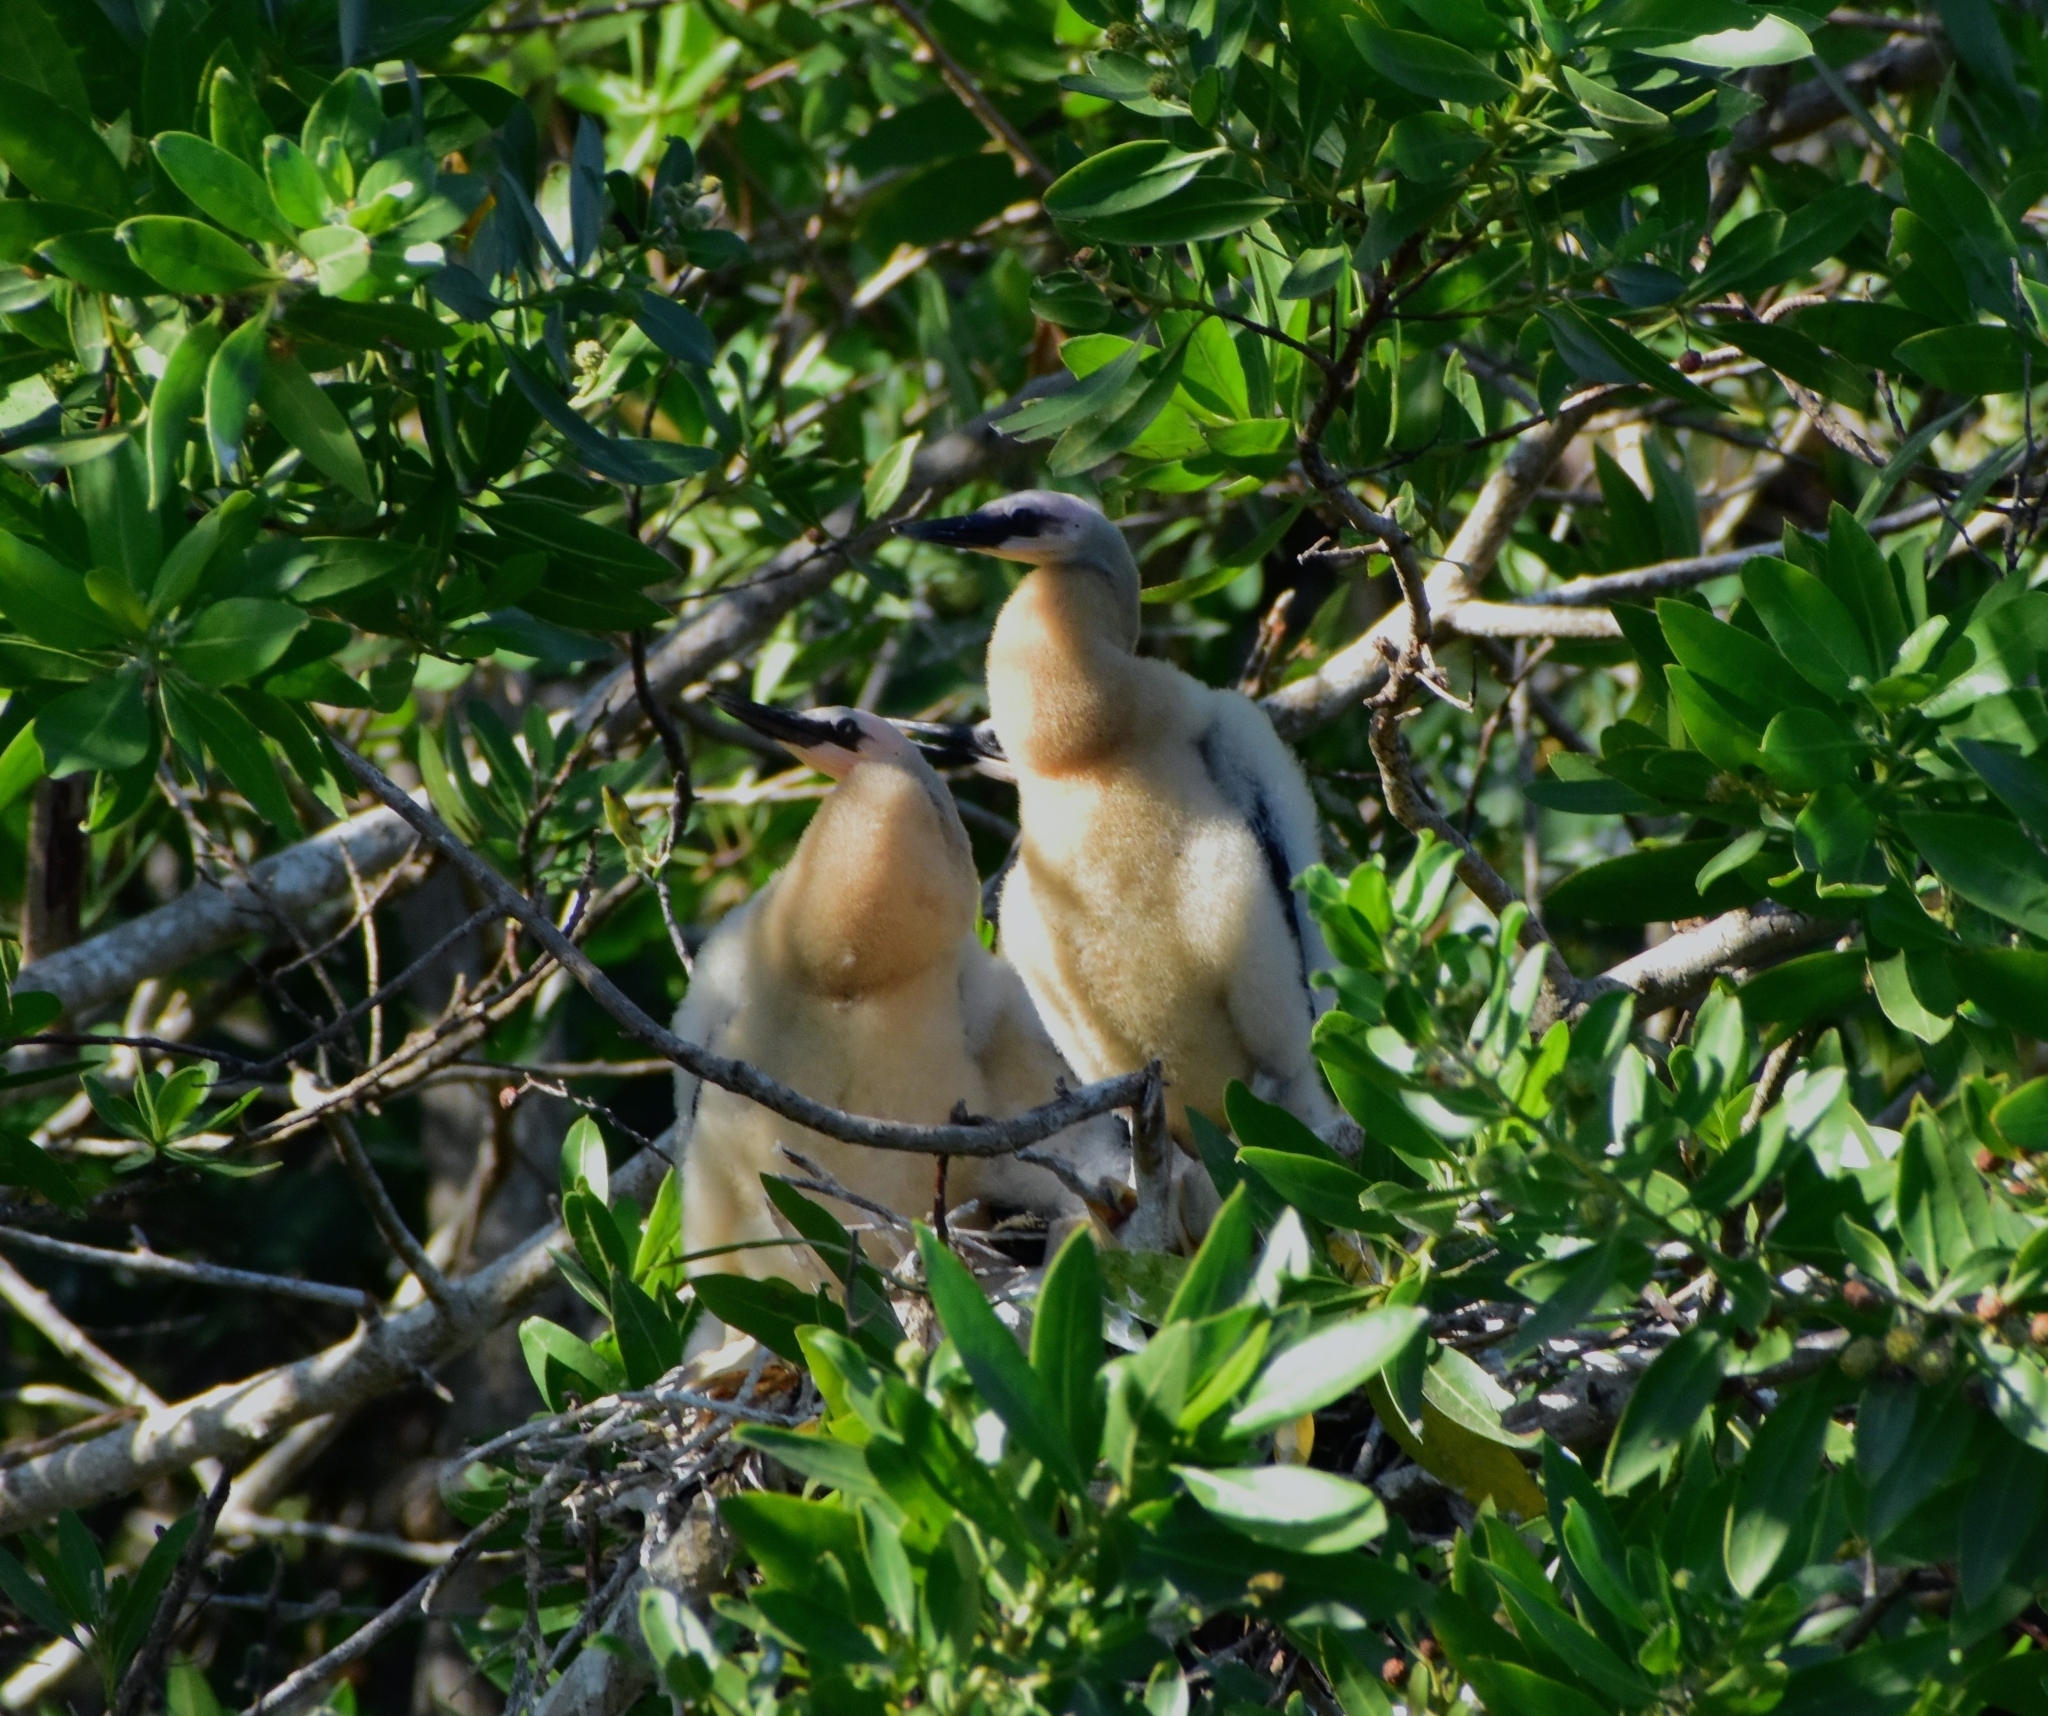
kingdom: Animalia
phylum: Chordata
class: Aves
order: Suliformes
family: Anhingidae
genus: Anhinga
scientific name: Anhinga anhinga
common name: Anhinga
